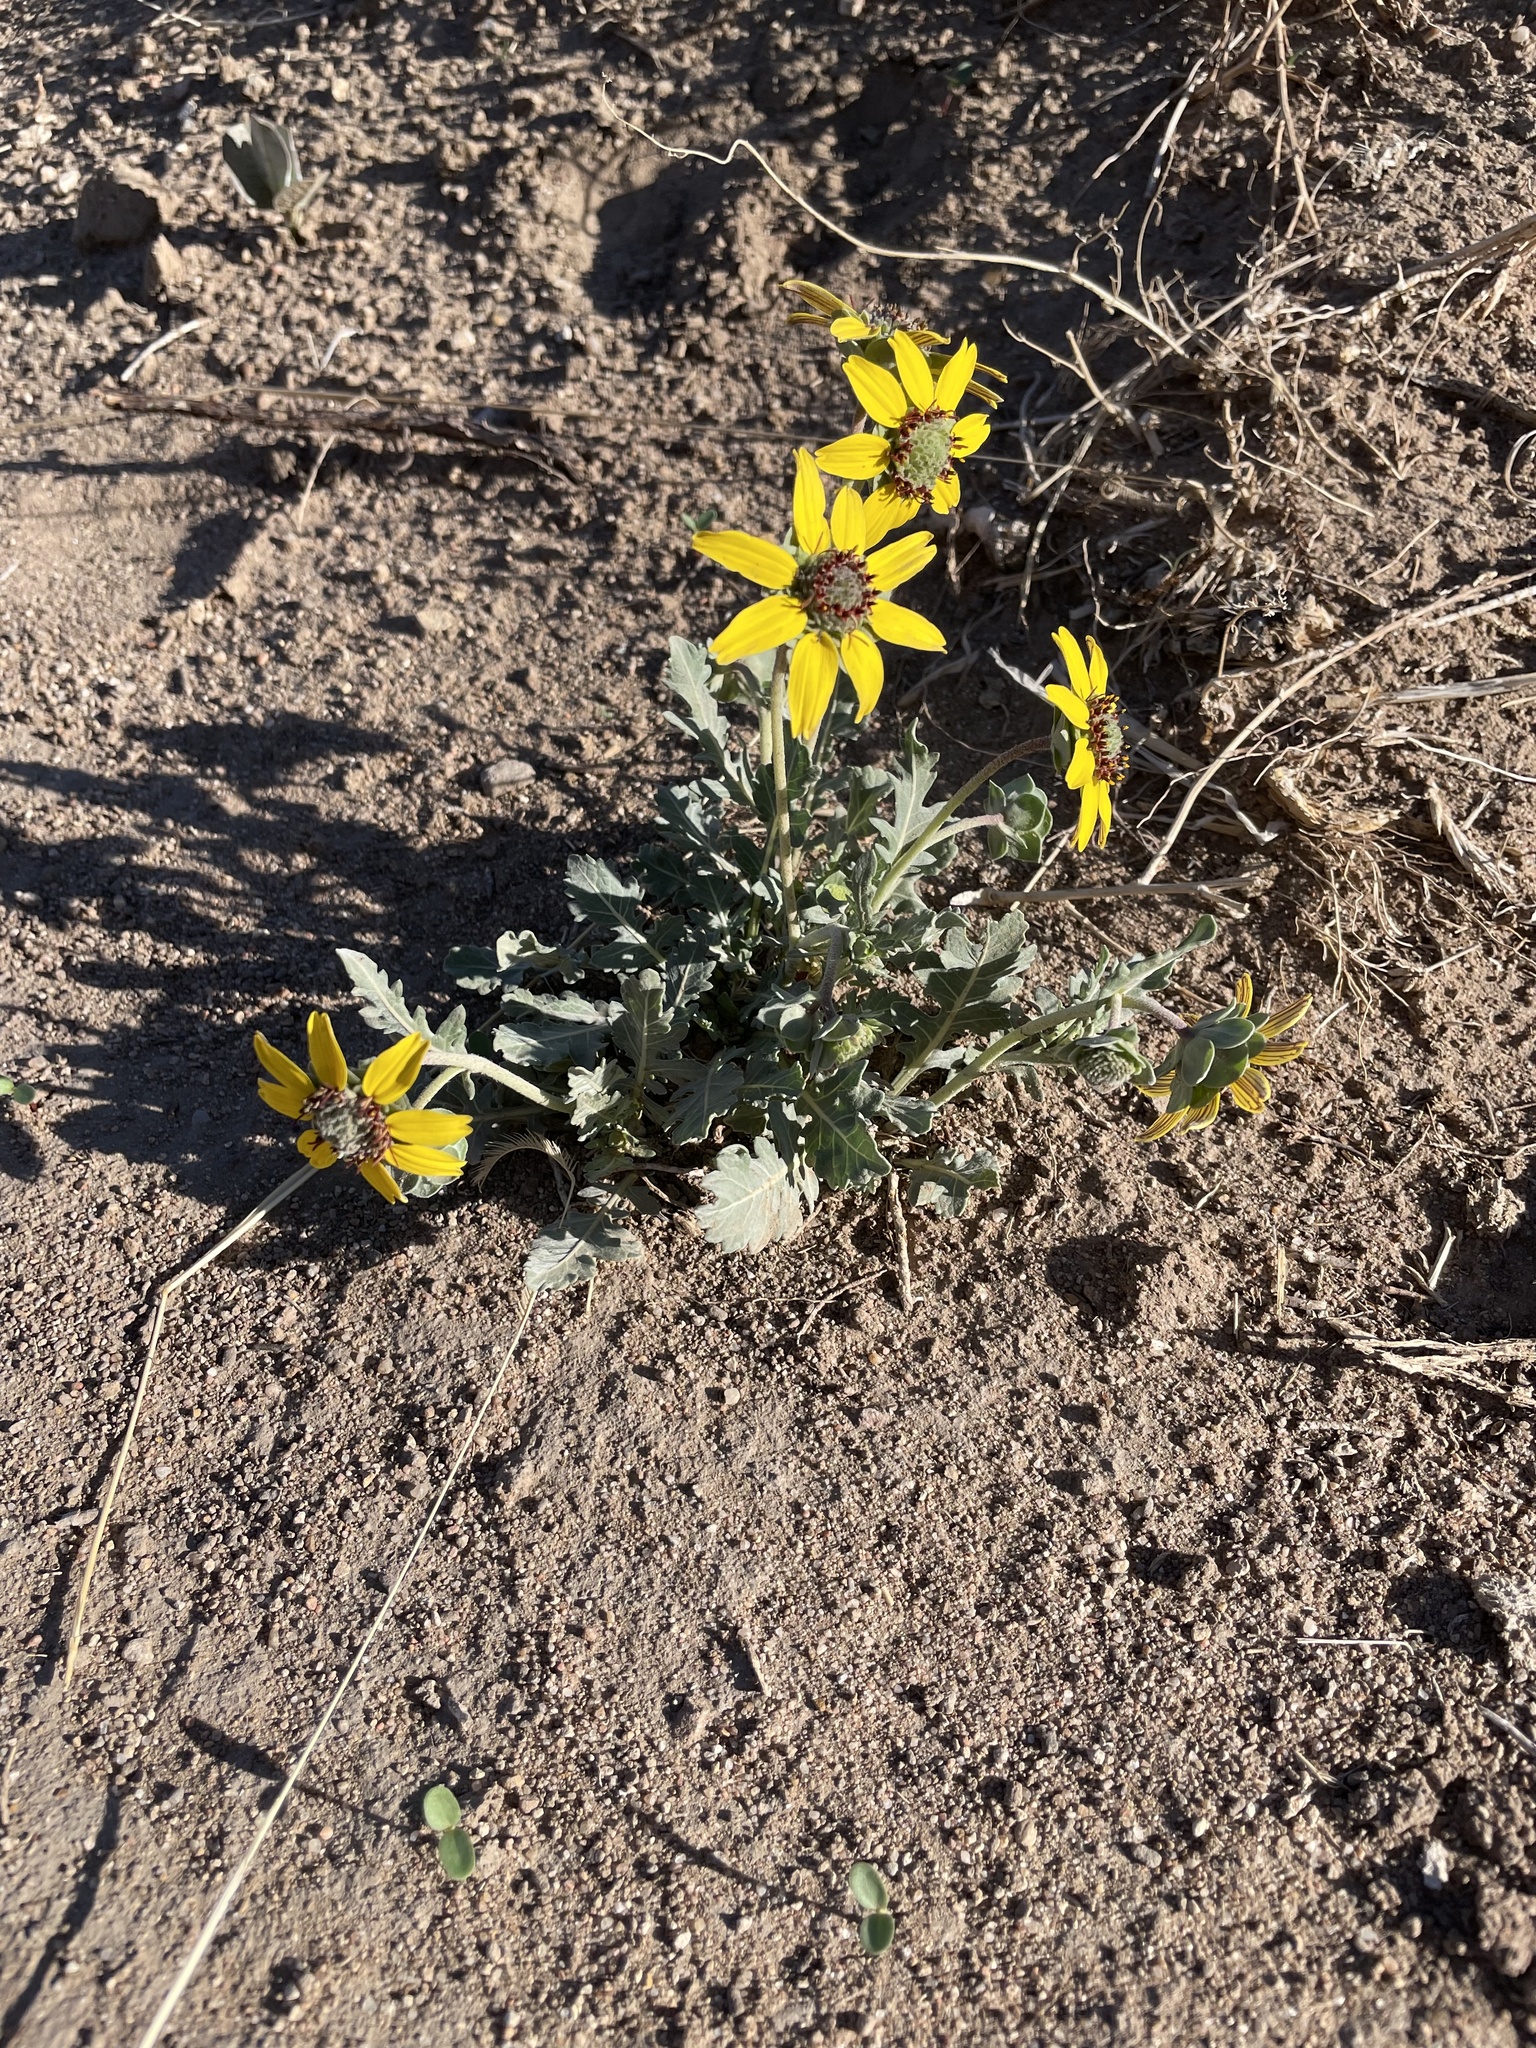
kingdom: Plantae
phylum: Tracheophyta
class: Magnoliopsida
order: Asterales
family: Asteraceae
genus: Berlandiera
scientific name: Berlandiera lyrata
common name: Chocolate-flower
